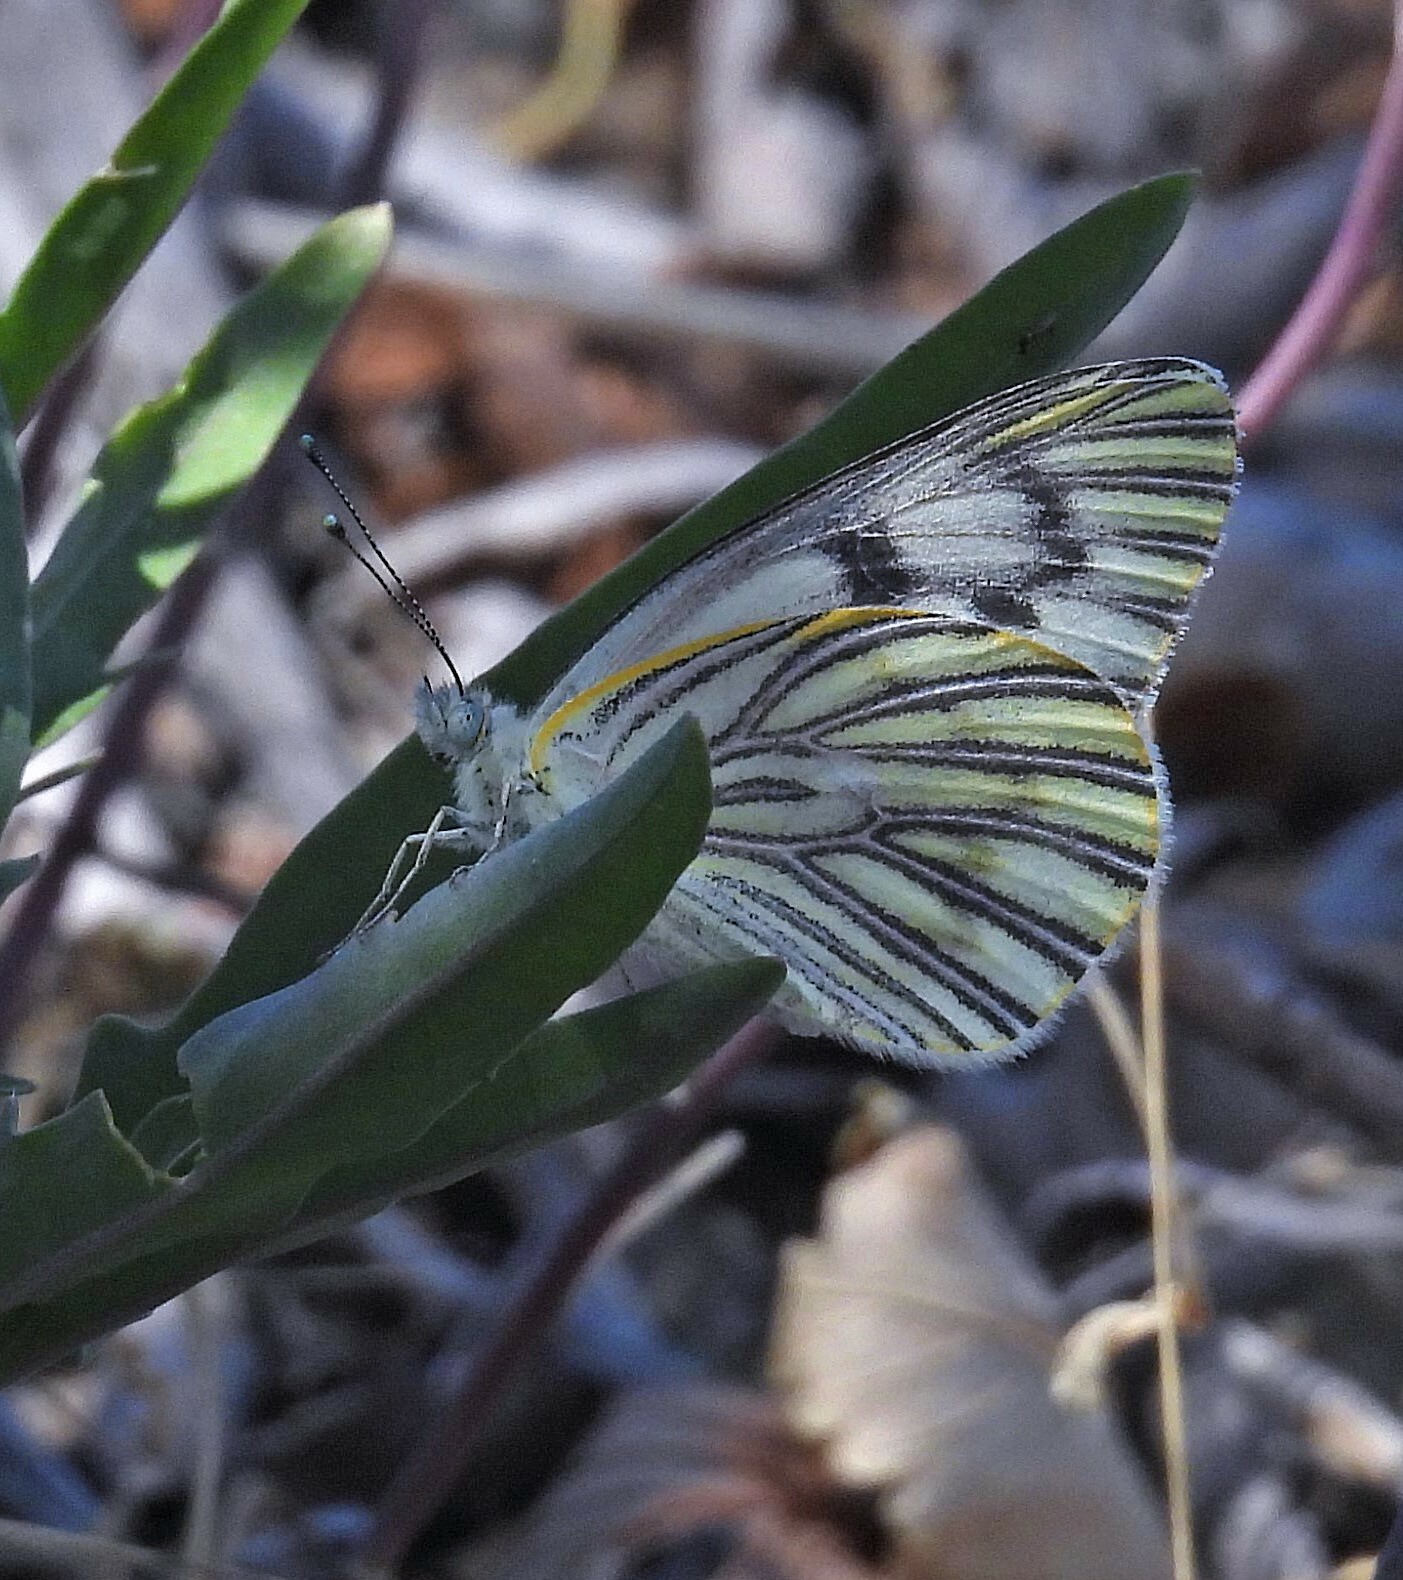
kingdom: Animalia
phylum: Arthropoda
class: Insecta
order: Lepidoptera
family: Pieridae
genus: Tatochila
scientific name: Tatochila mercedis
